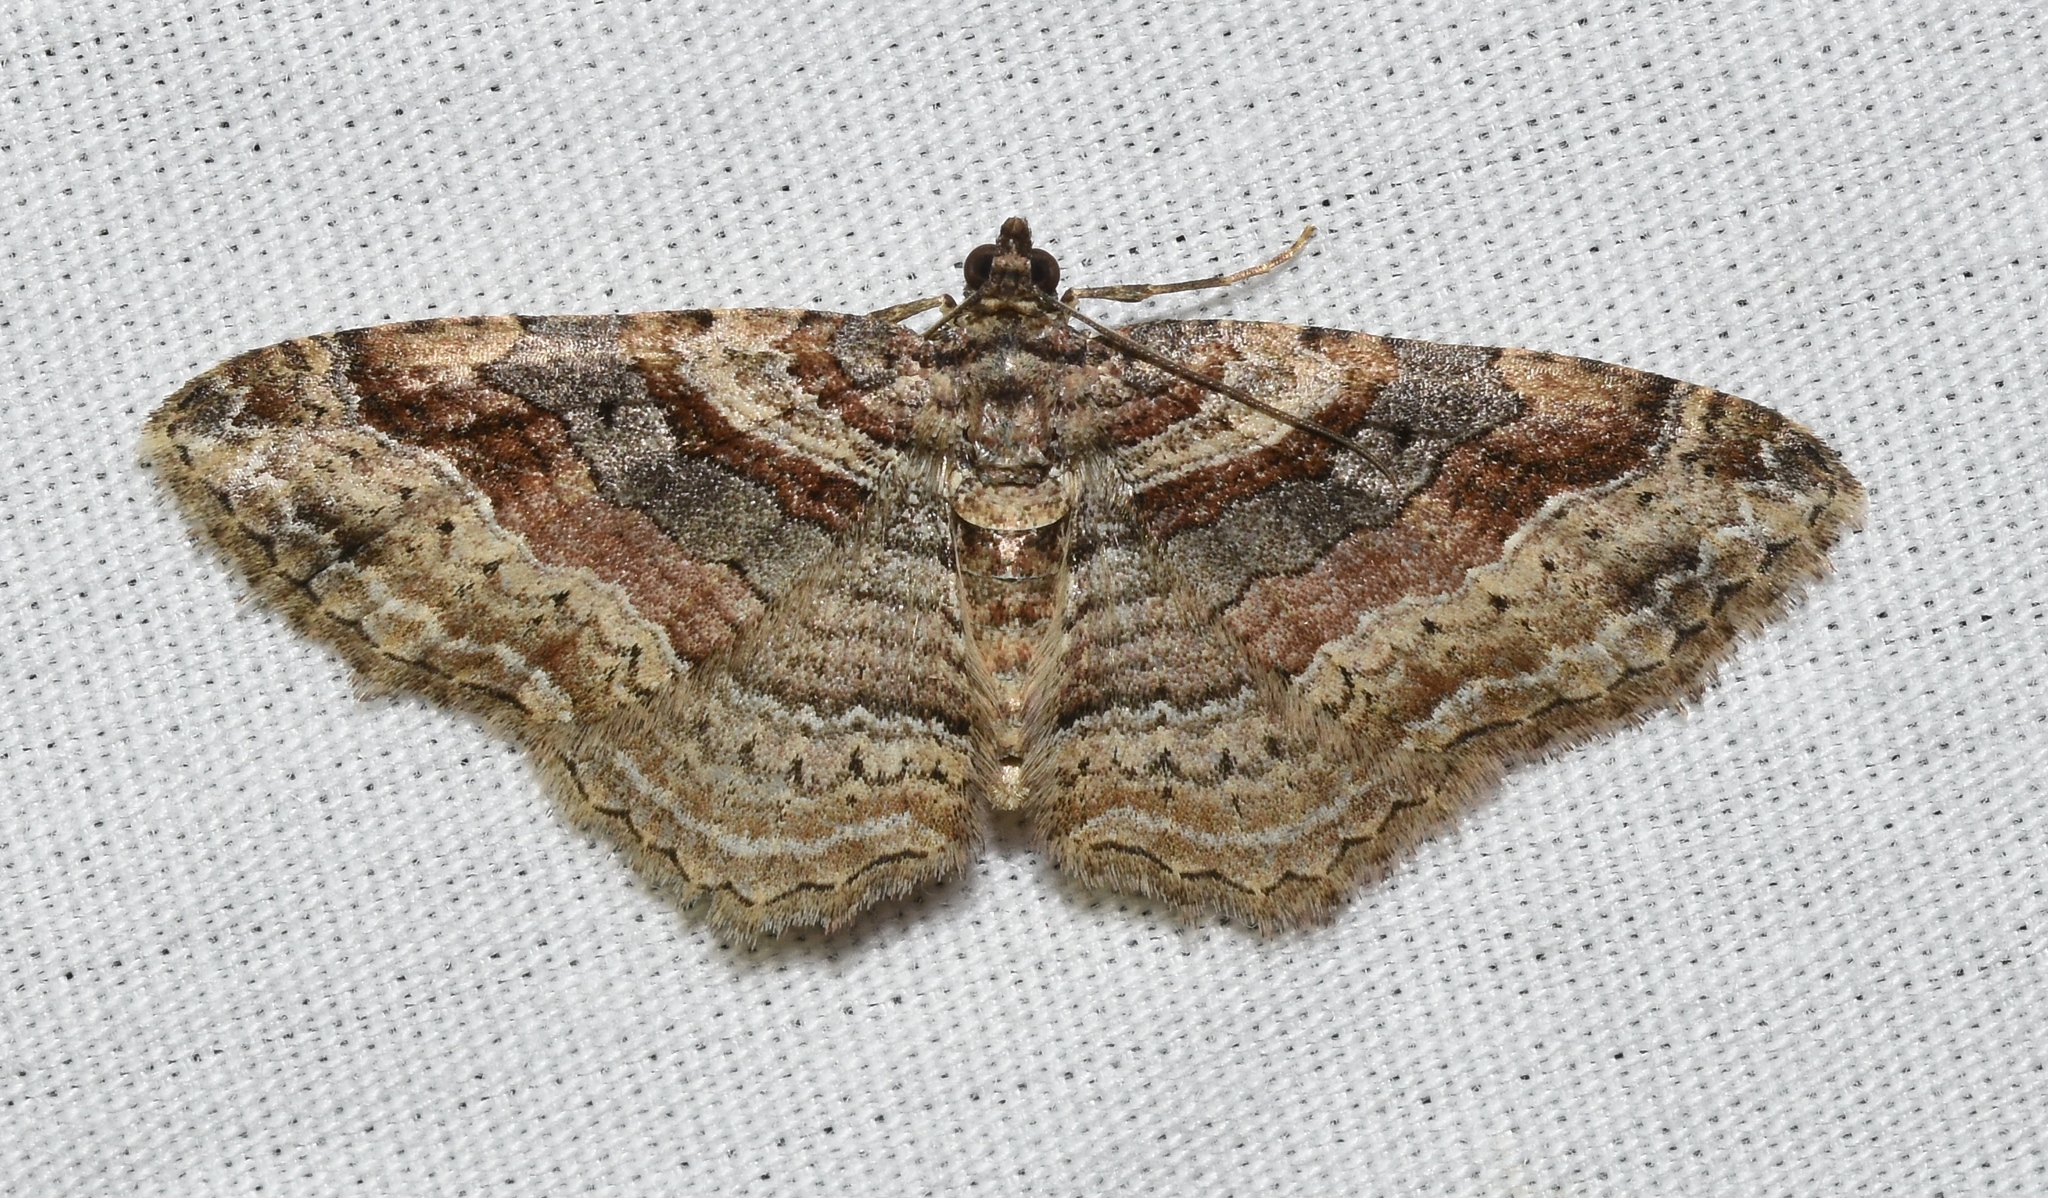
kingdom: Animalia
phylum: Arthropoda
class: Insecta
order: Lepidoptera
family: Geometridae
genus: Costaconvexa
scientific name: Costaconvexa centrostrigaria
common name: Bent-line carpet
